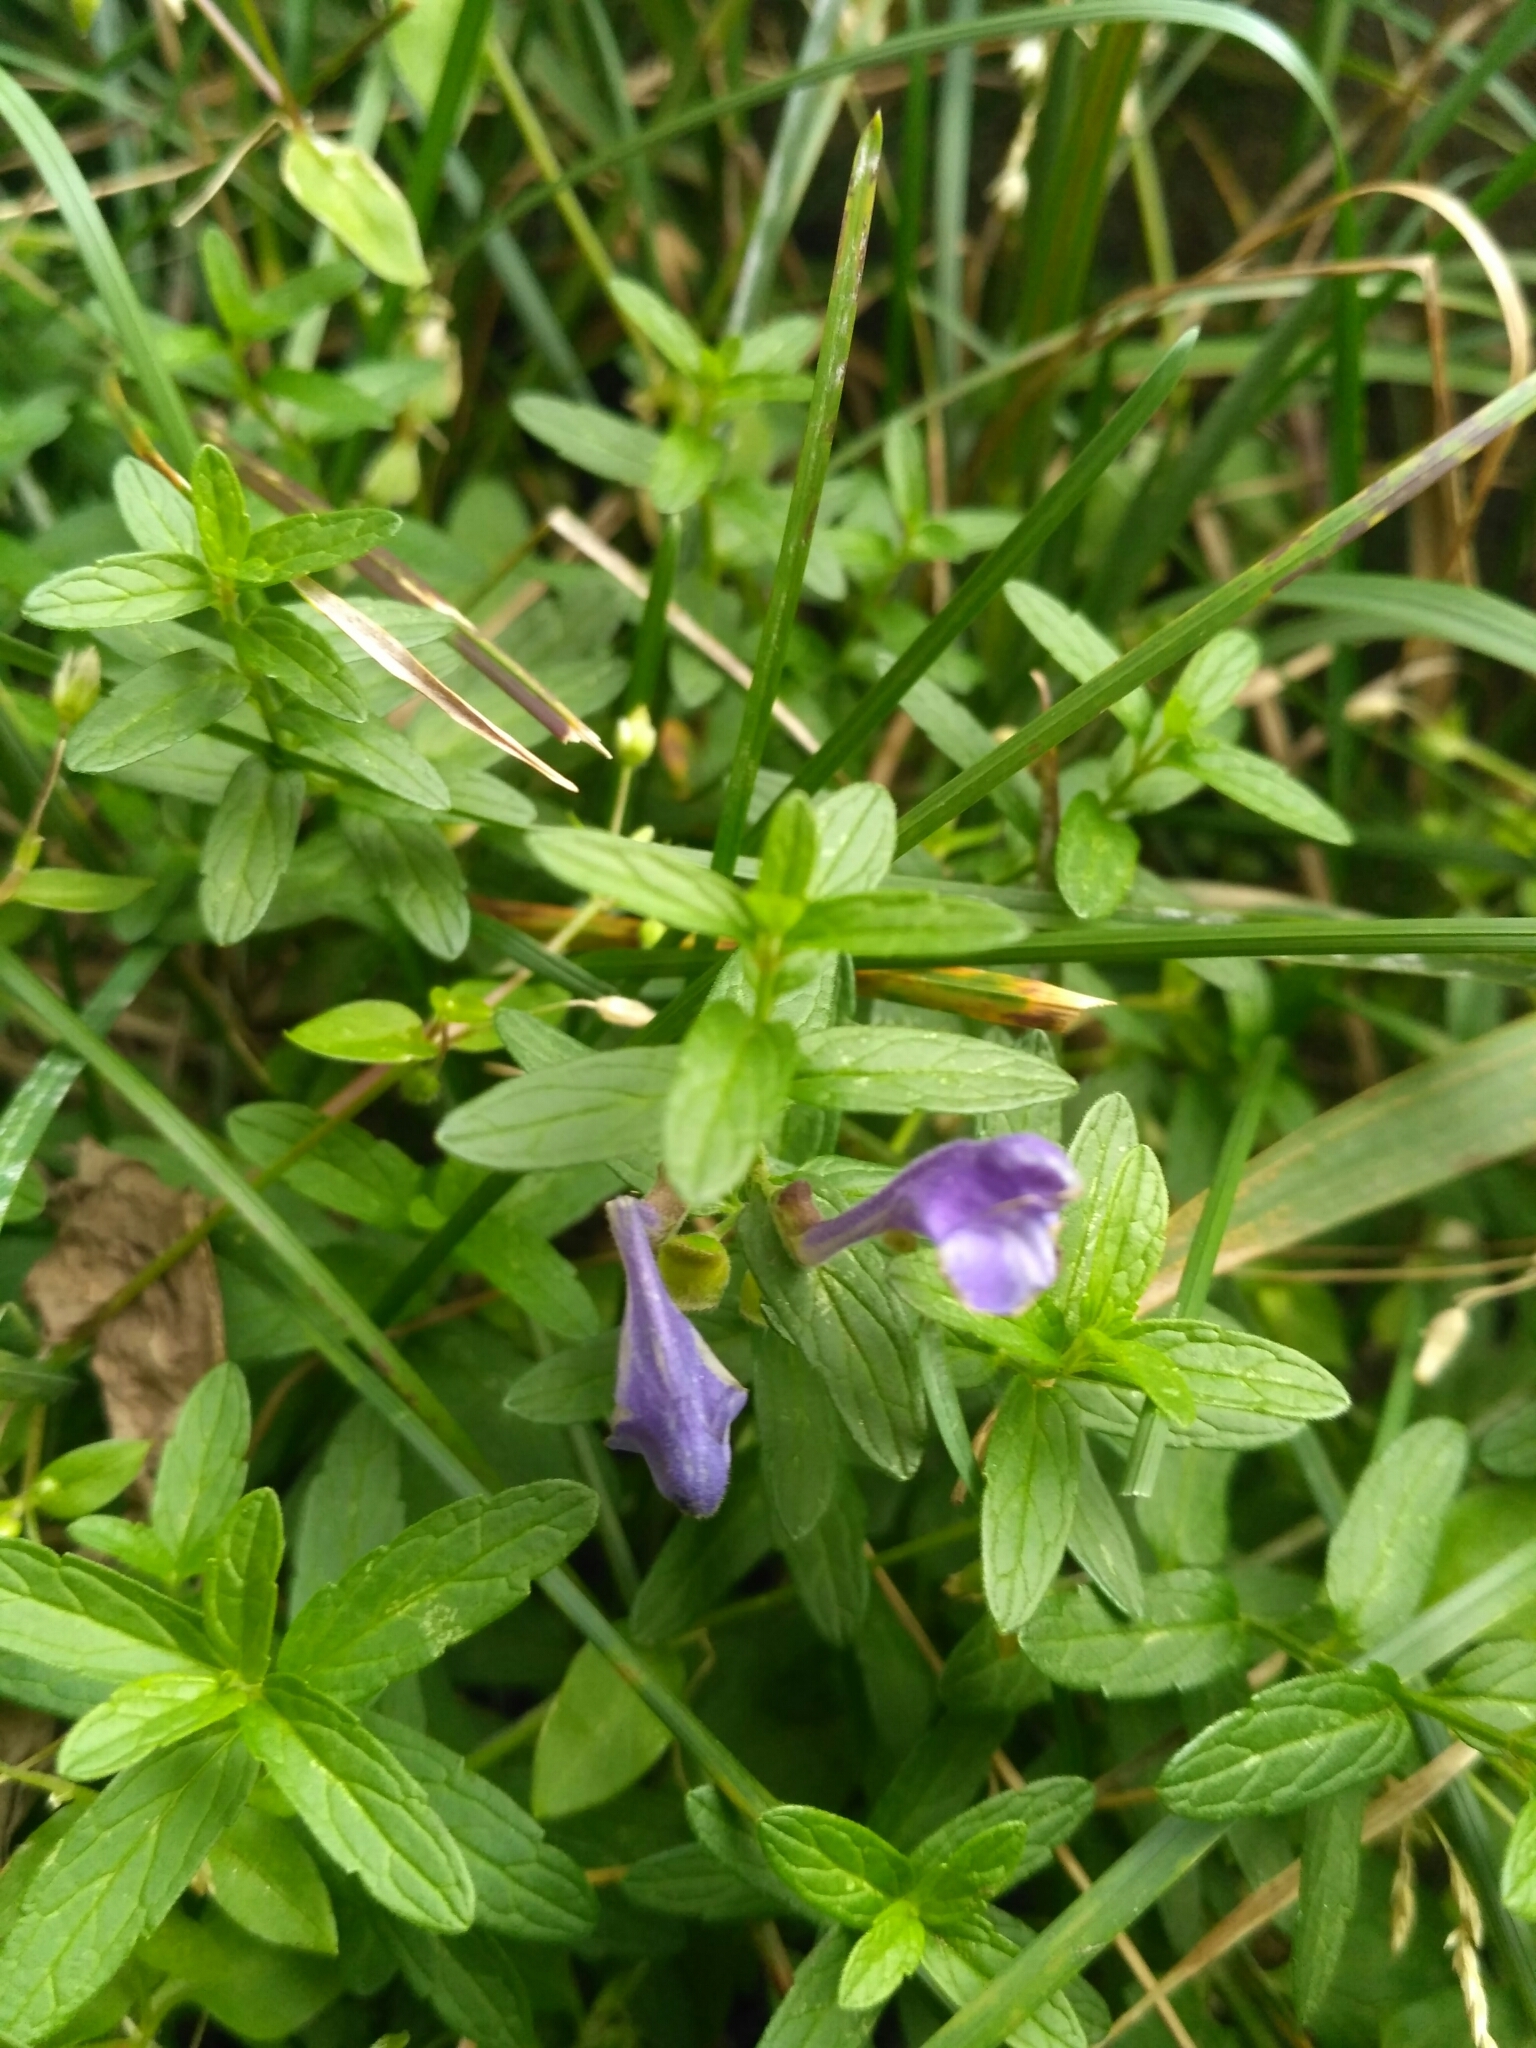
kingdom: Plantae
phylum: Tracheophyta
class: Magnoliopsida
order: Lamiales
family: Lamiaceae
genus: Scutellaria
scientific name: Scutellaria scordiifolia
